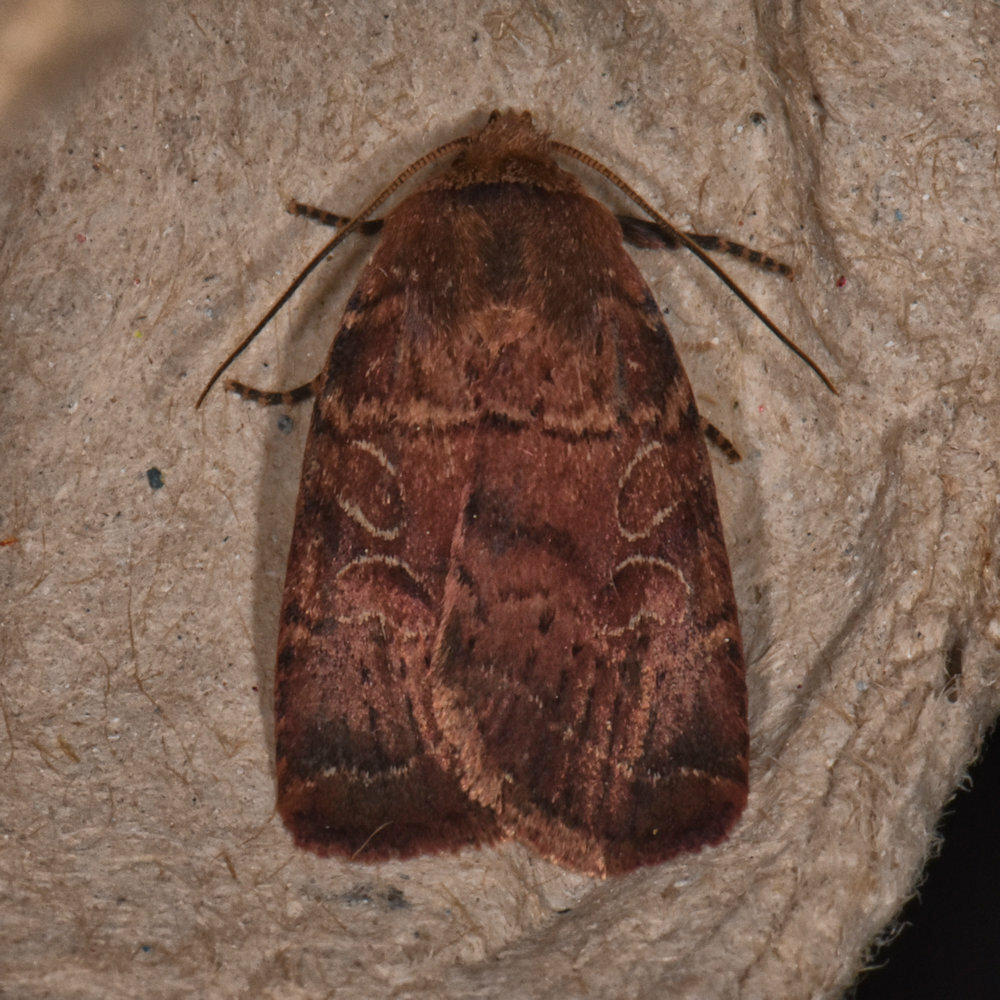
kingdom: Animalia
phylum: Arthropoda
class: Insecta
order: Lepidoptera
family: Noctuidae
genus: Orthodes
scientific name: Orthodes cynica
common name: Cynical quaker
